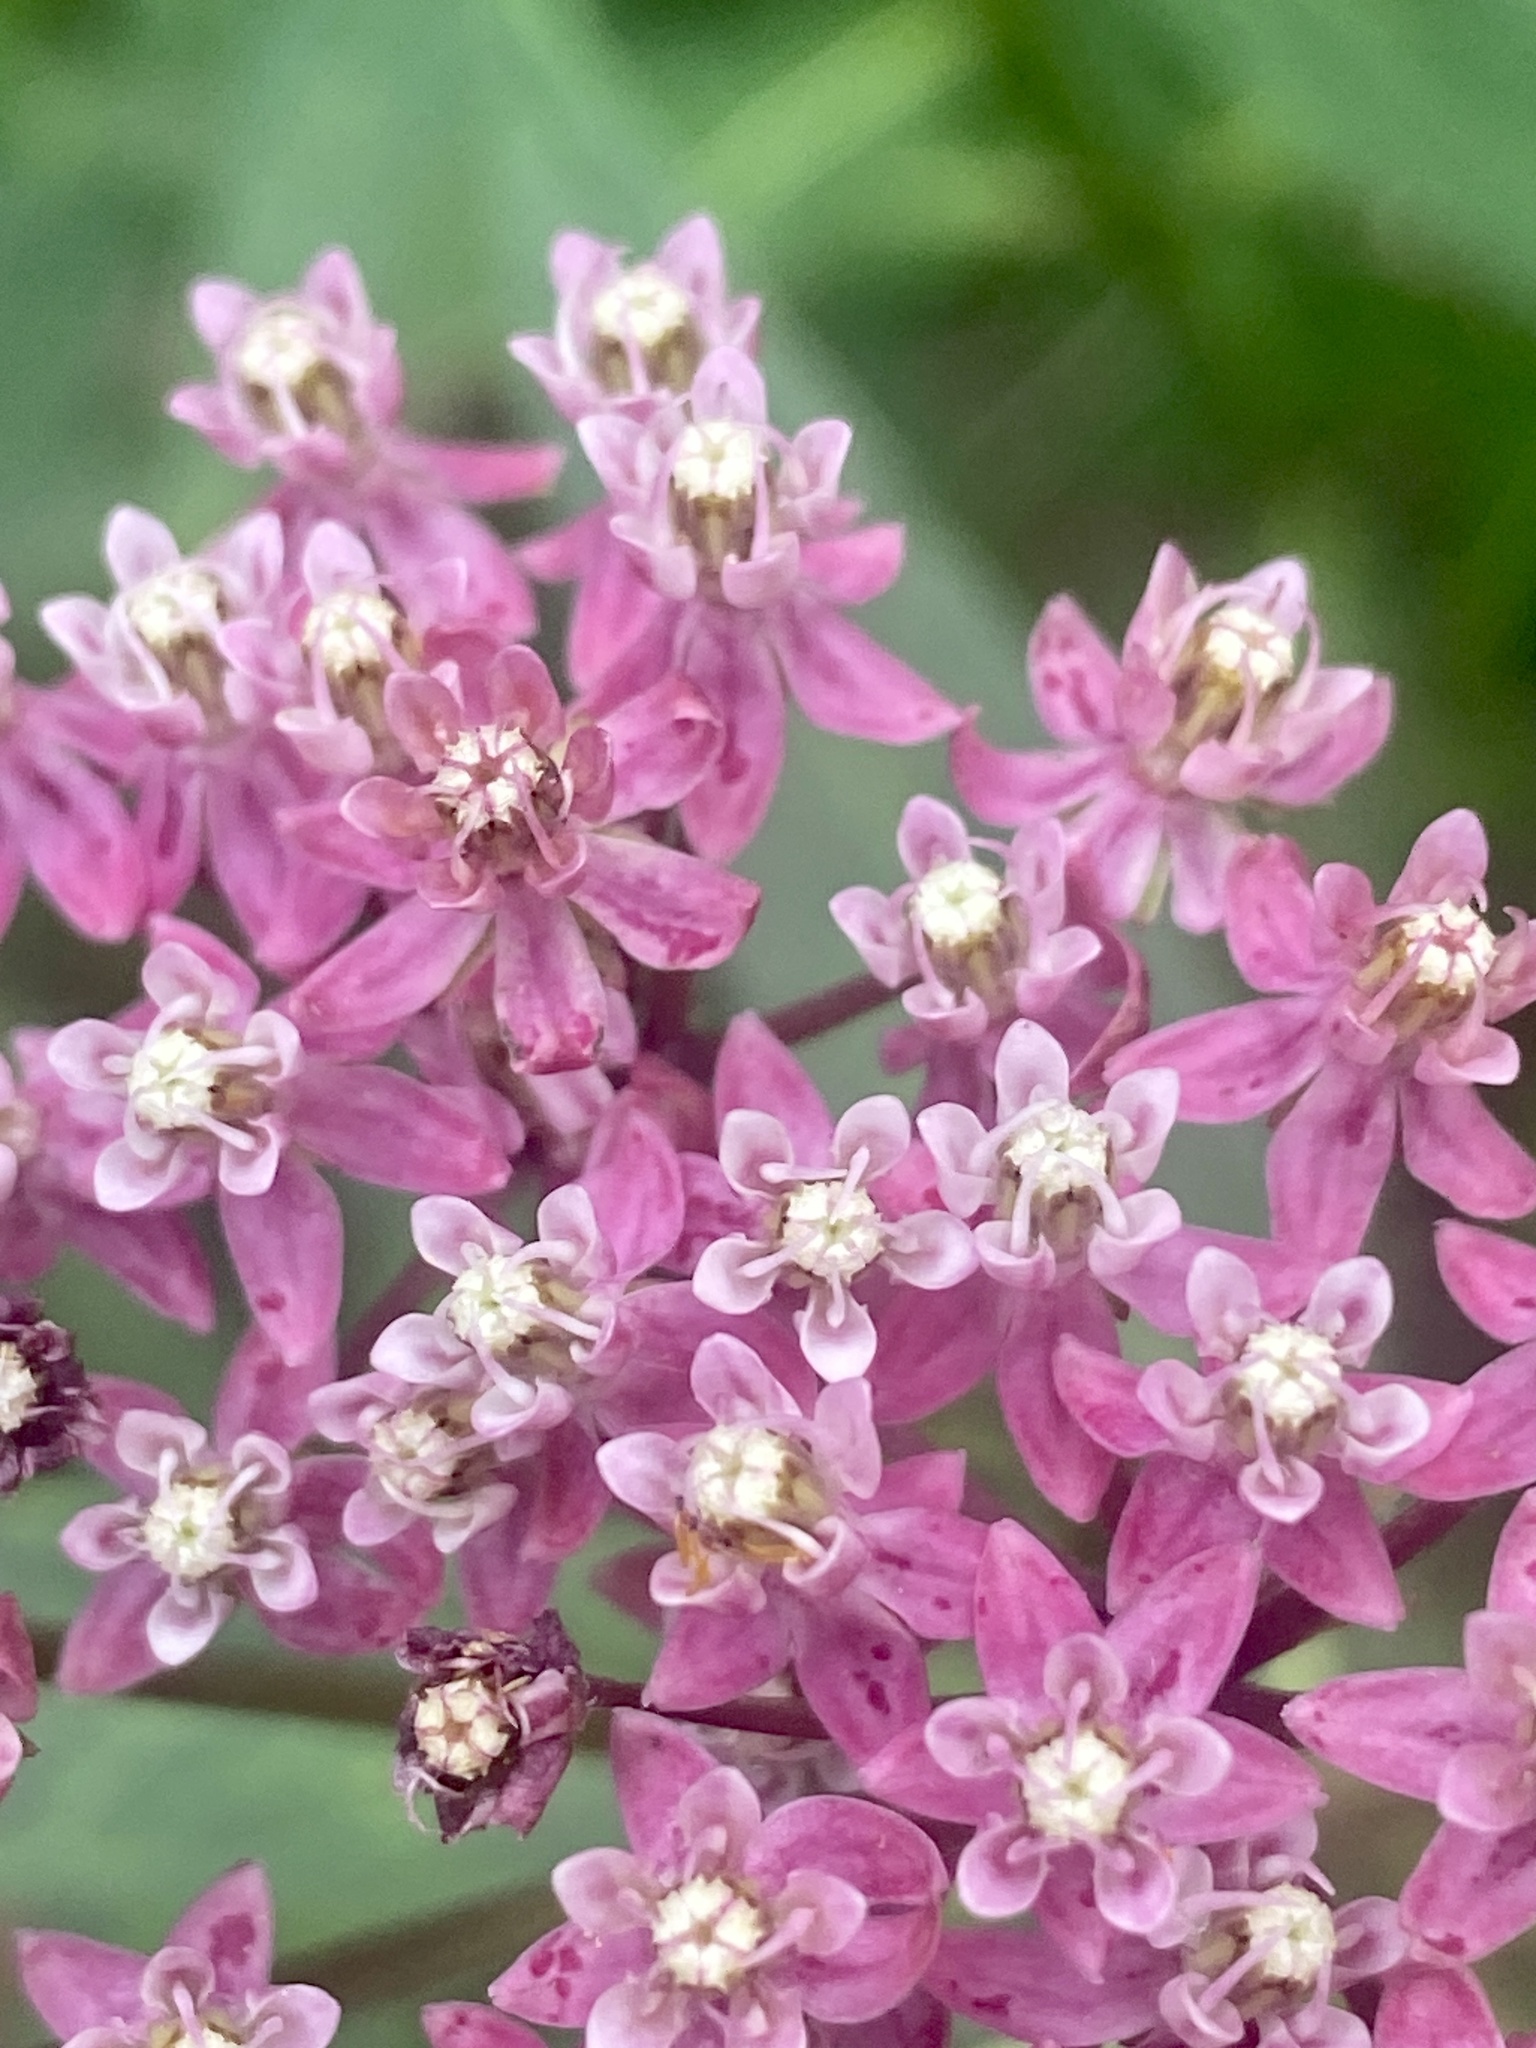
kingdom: Plantae
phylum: Tracheophyta
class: Magnoliopsida
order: Gentianales
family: Apocynaceae
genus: Asclepias
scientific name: Asclepias incarnata
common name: Swamp milkweed
